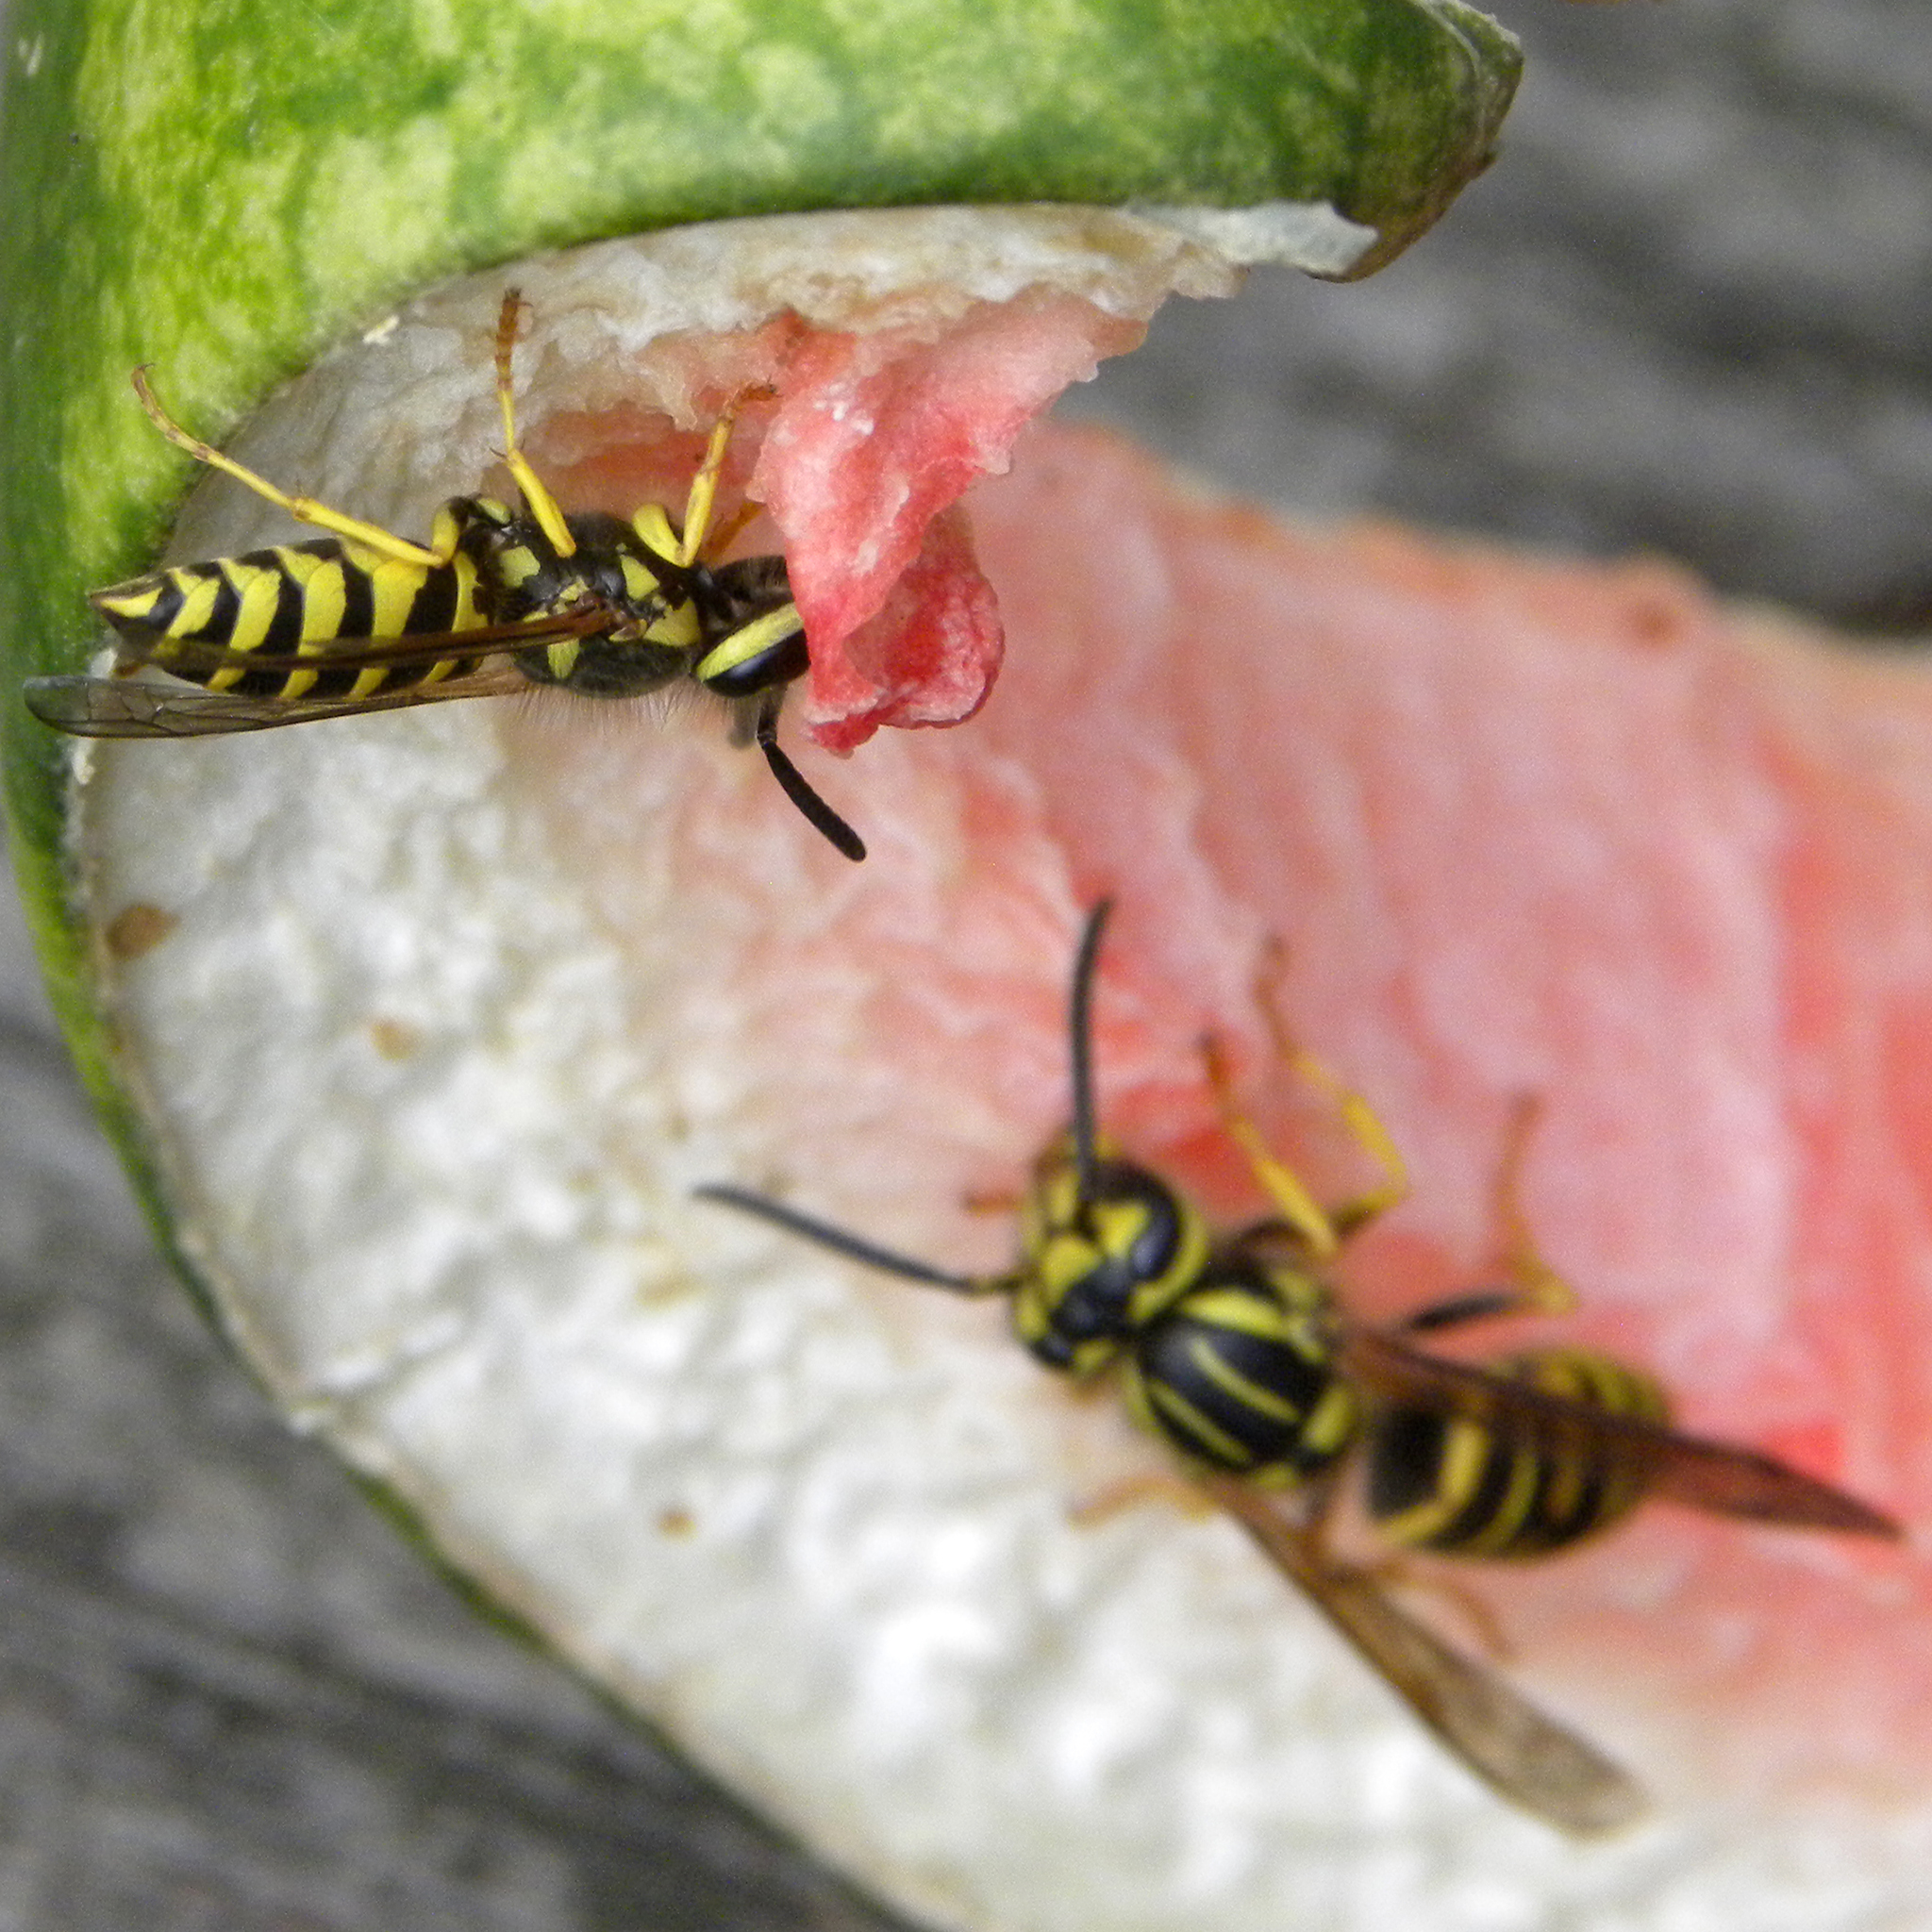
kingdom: Animalia
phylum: Arthropoda
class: Insecta
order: Hymenoptera
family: Vespidae
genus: Vespula
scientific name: Vespula maculifrons
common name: Eastern yellowjacket
